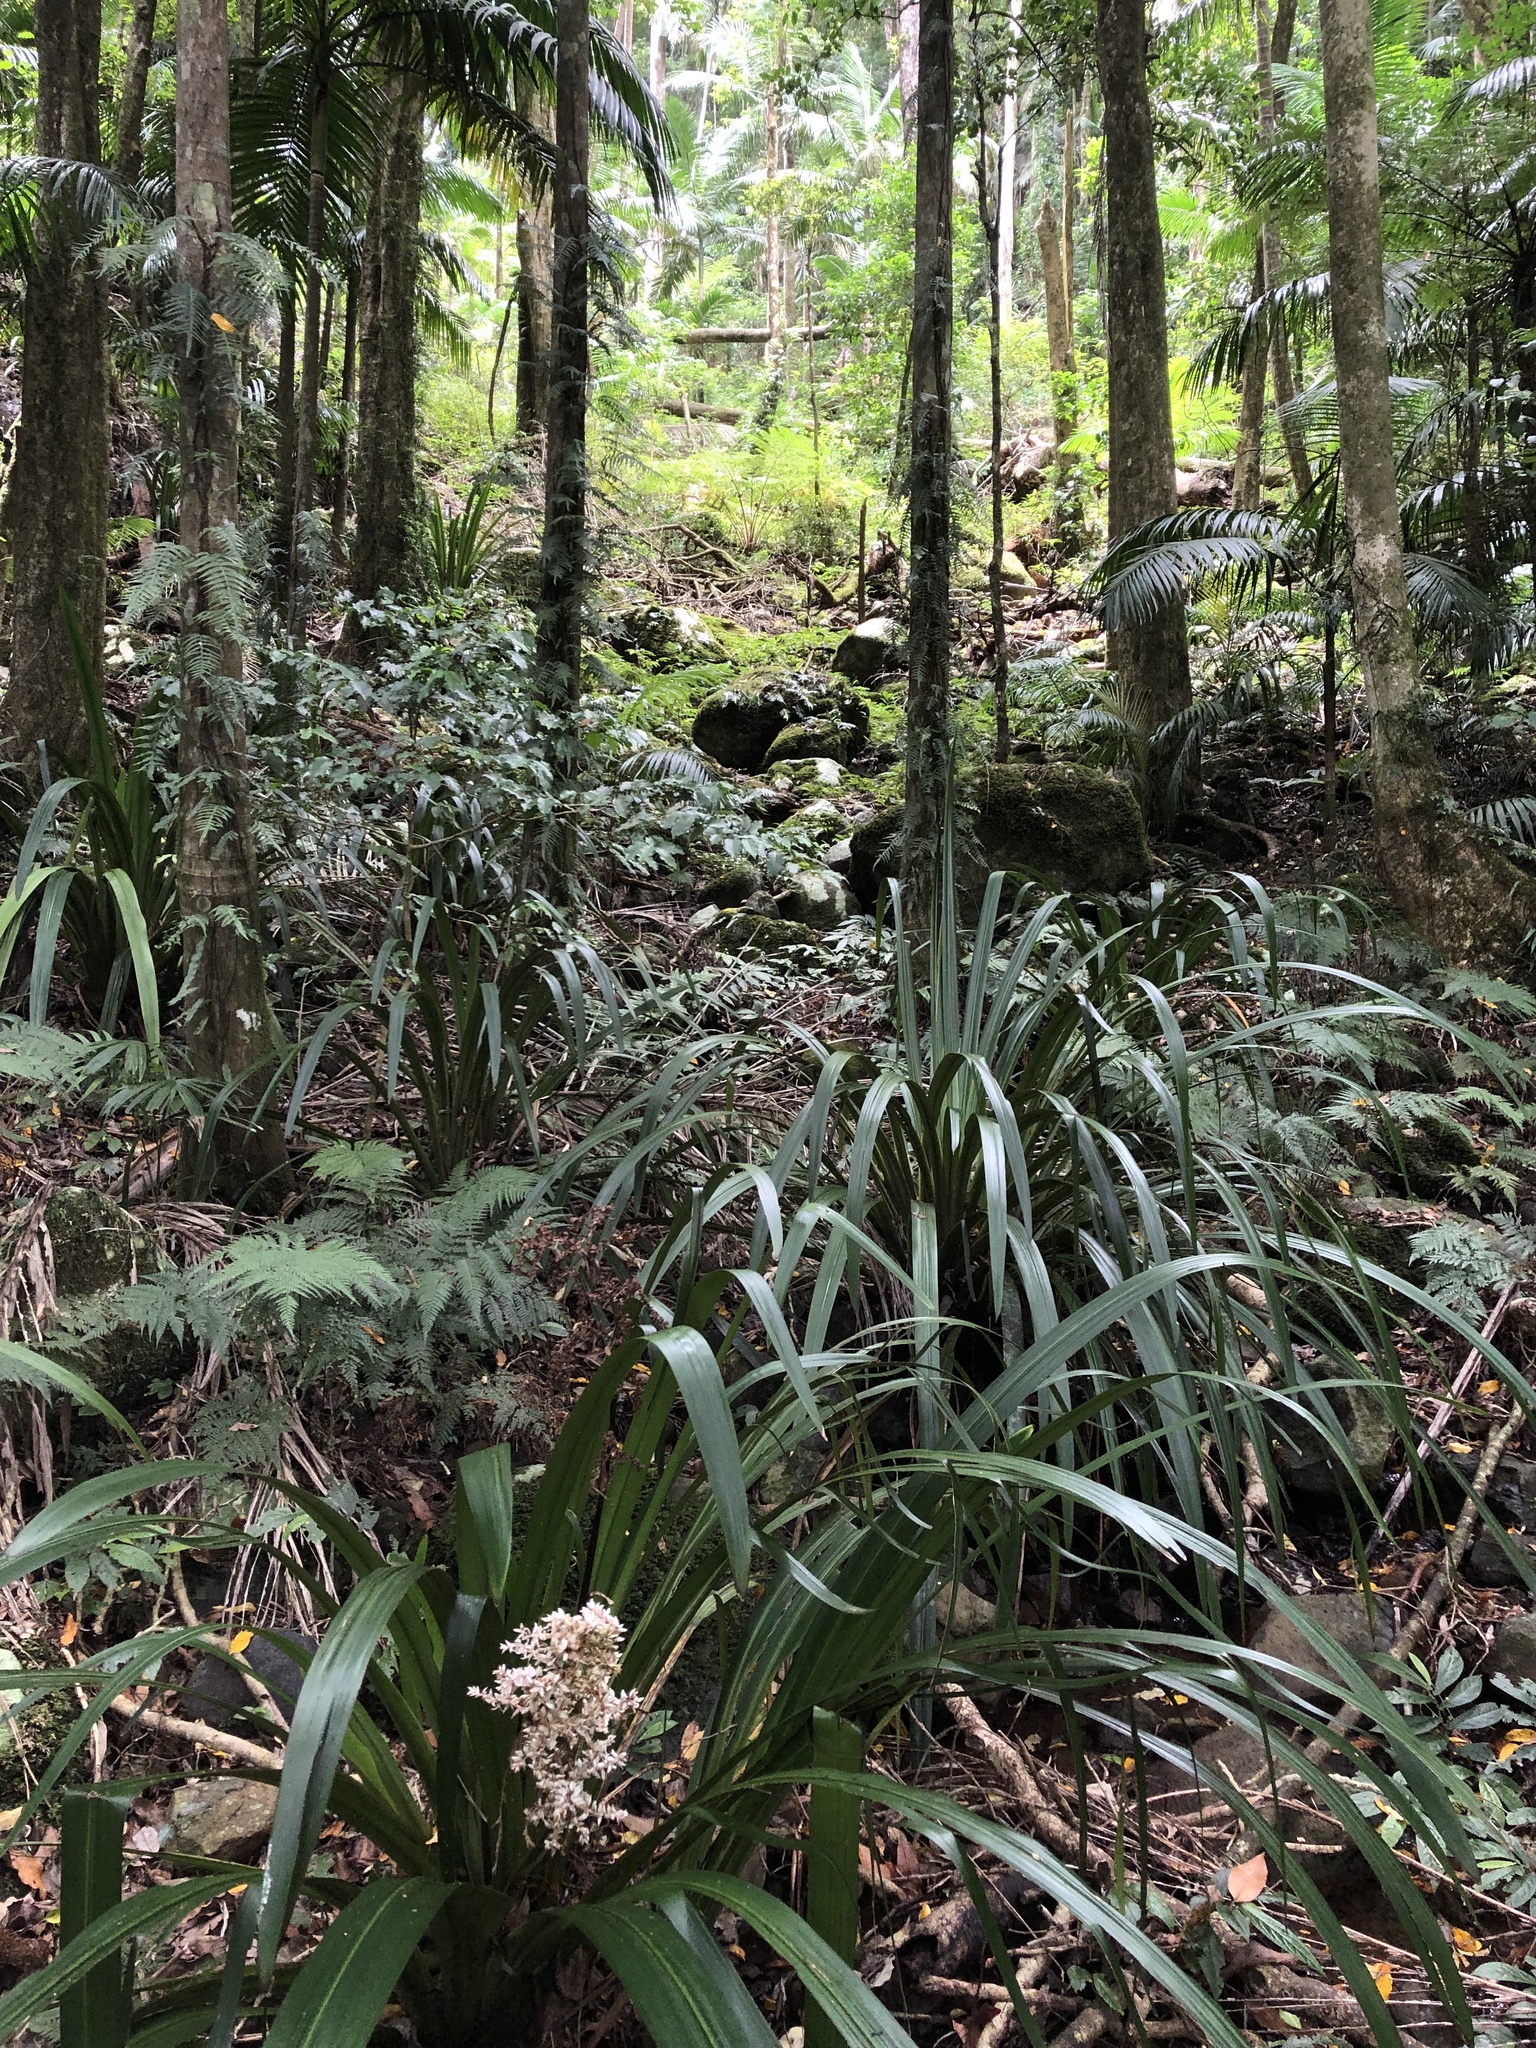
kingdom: Plantae
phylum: Tracheophyta
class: Liliopsida
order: Commelinales
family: Philydraceae
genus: Helmholtzia
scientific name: Helmholtzia glaberrima
